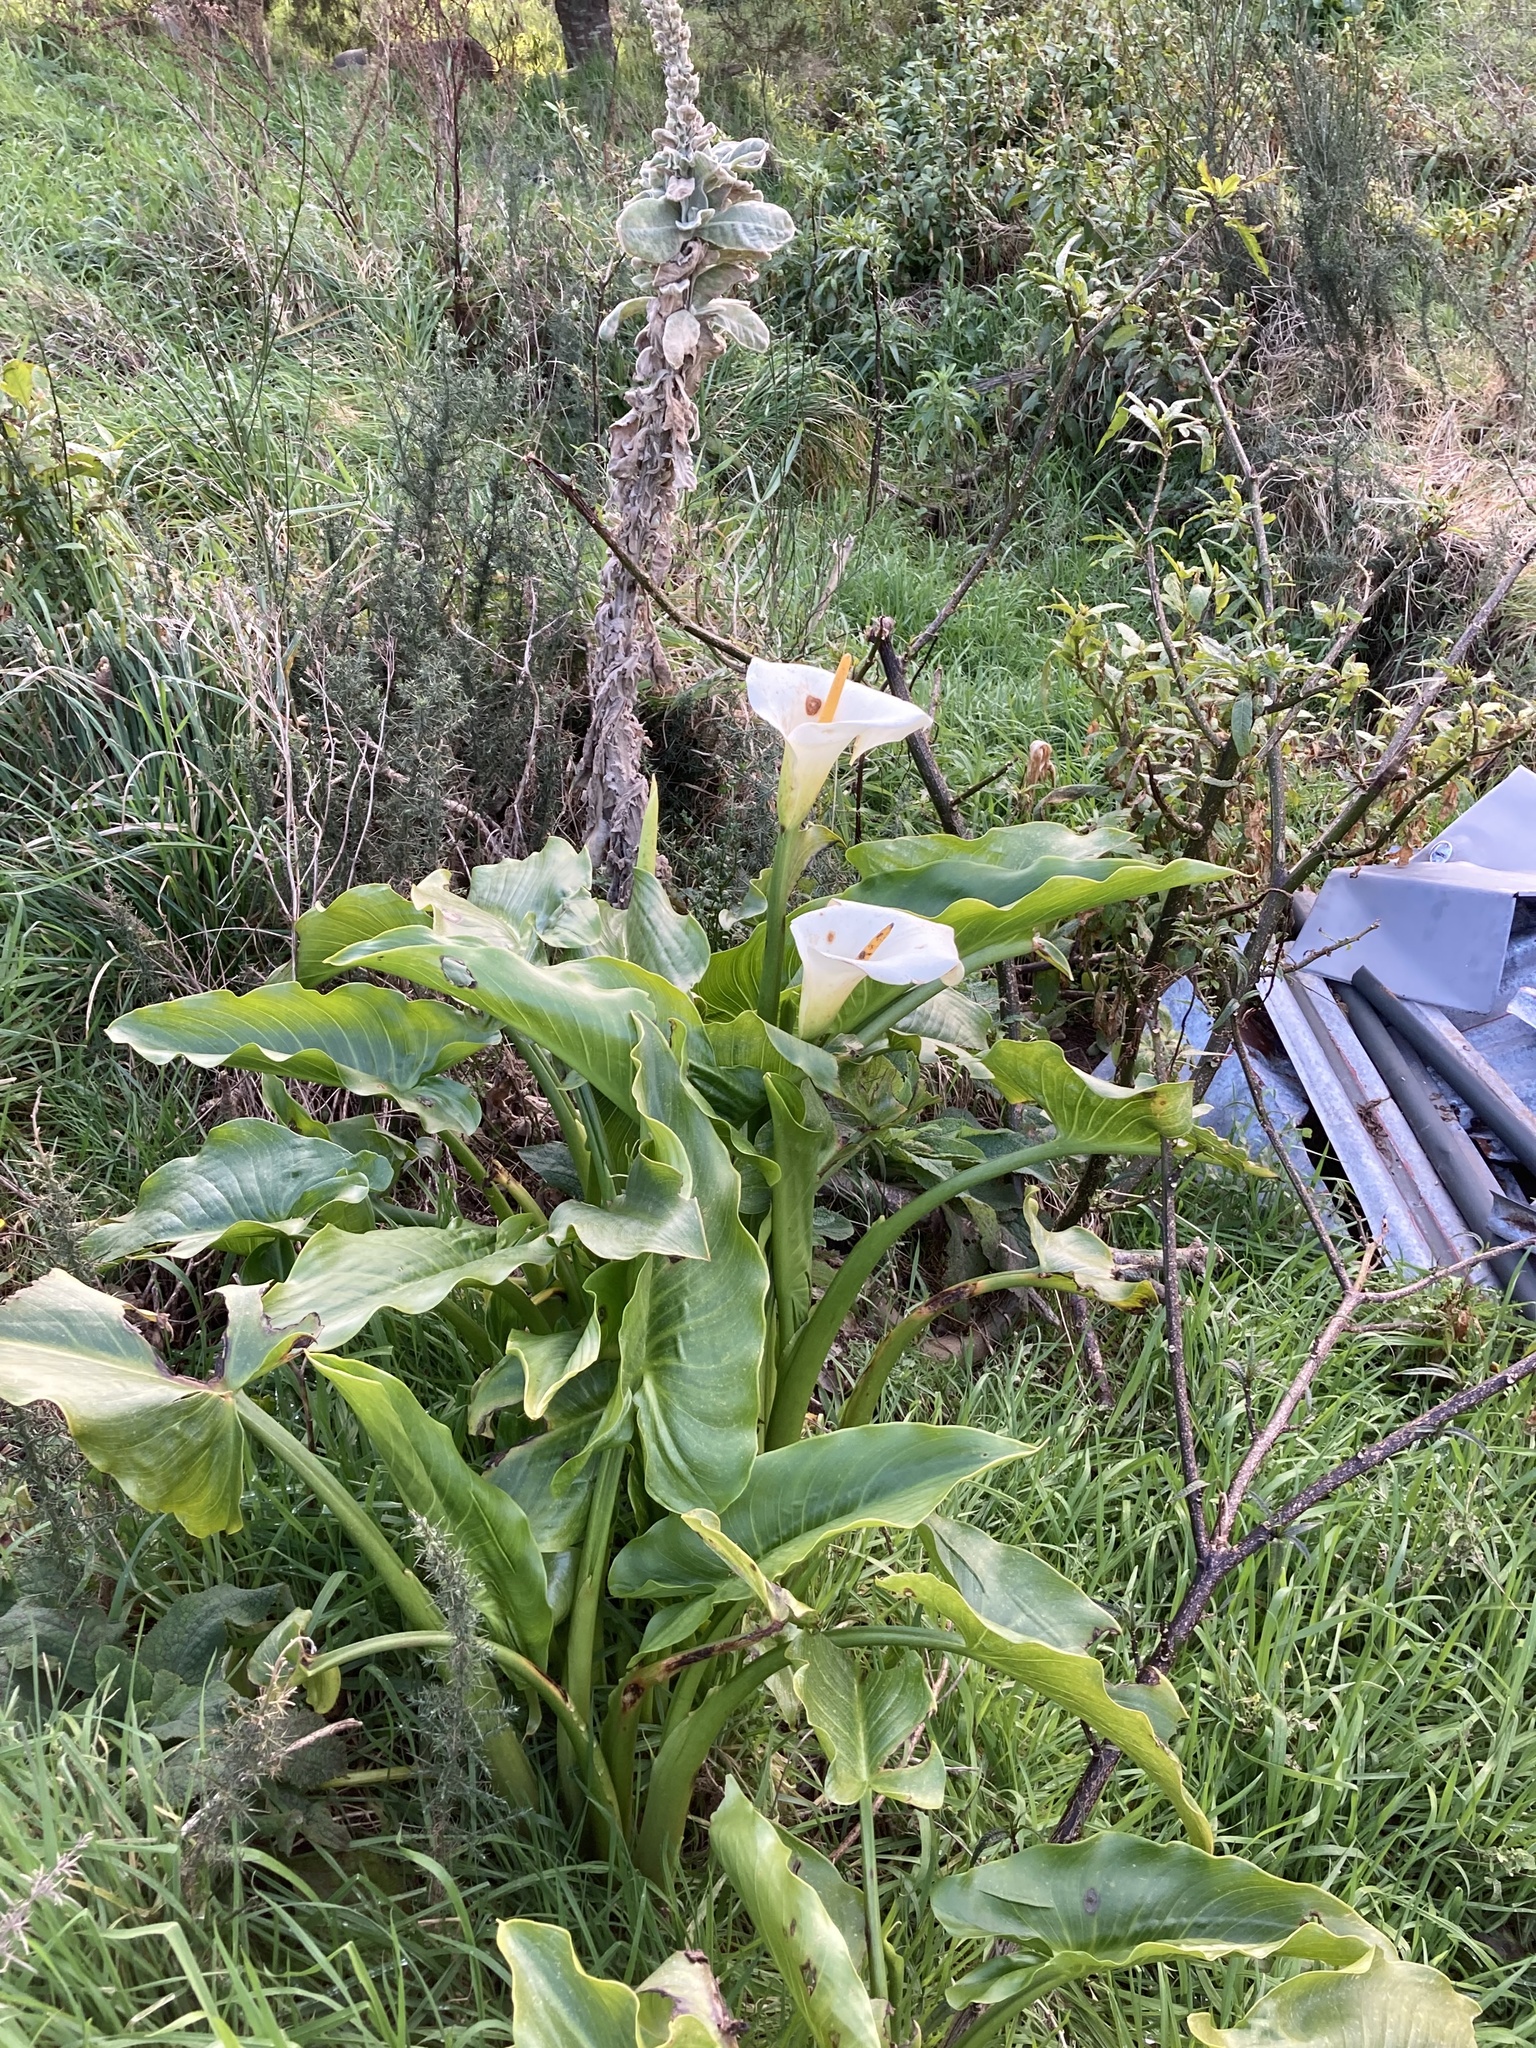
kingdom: Plantae
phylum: Tracheophyta
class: Liliopsida
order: Alismatales
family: Araceae
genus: Zantedeschia
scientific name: Zantedeschia aethiopica
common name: Altar-lily
